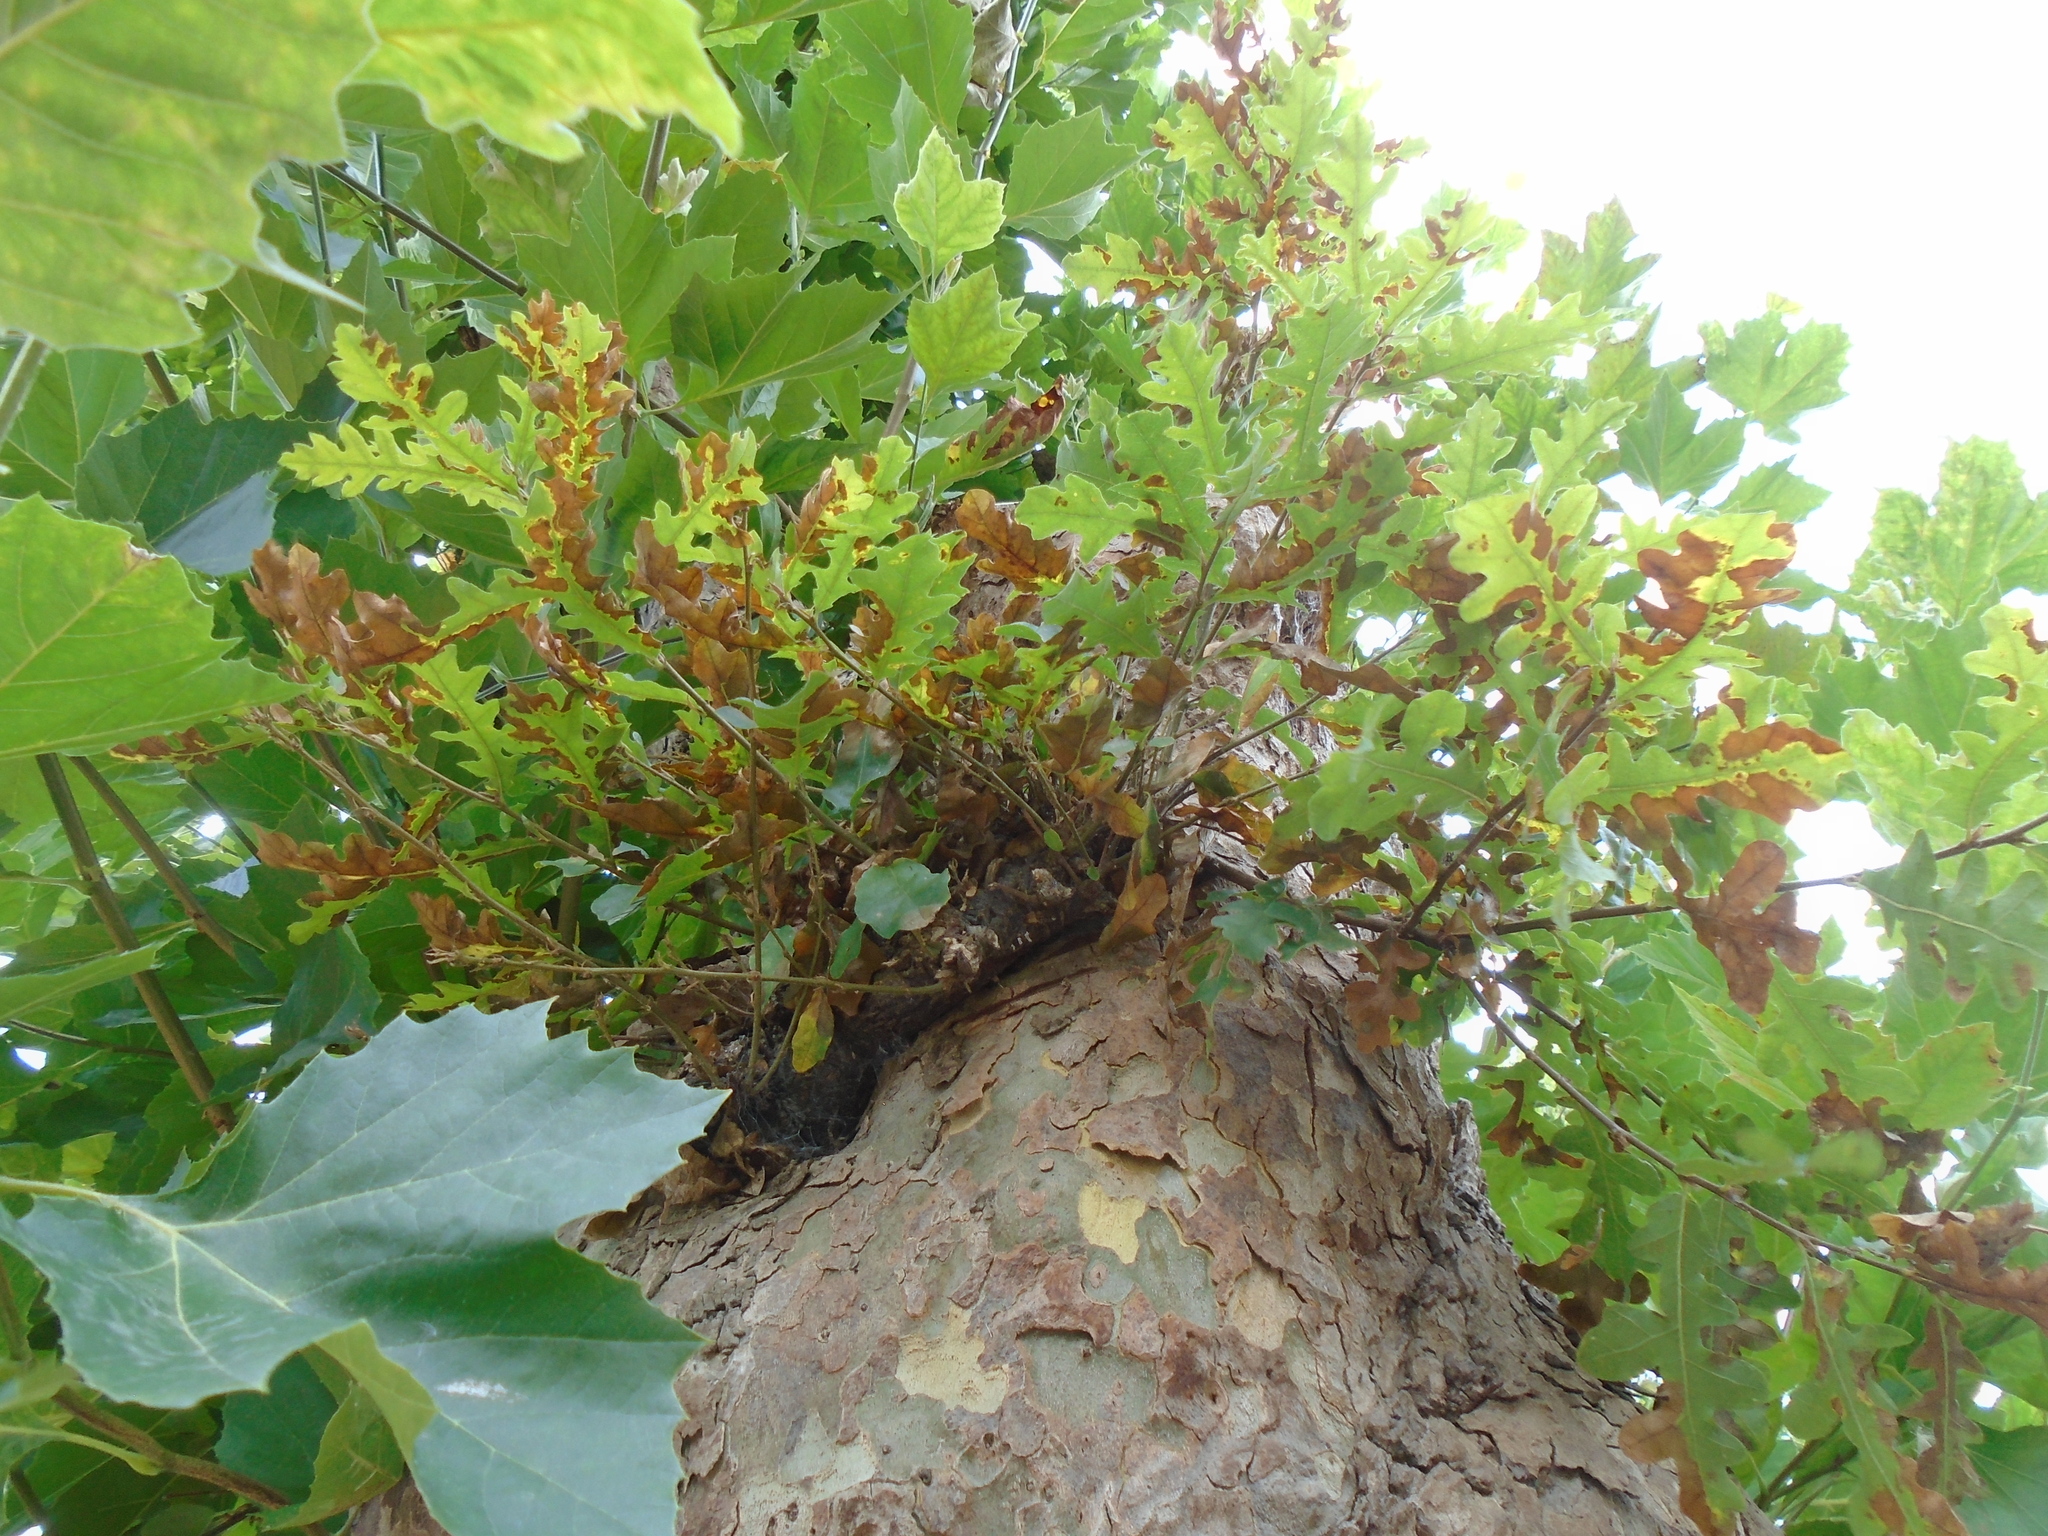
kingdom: Plantae
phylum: Tracheophyta
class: Magnoliopsida
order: Fagales
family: Fagaceae
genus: Quercus
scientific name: Quercus cerris
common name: Turkey oak
